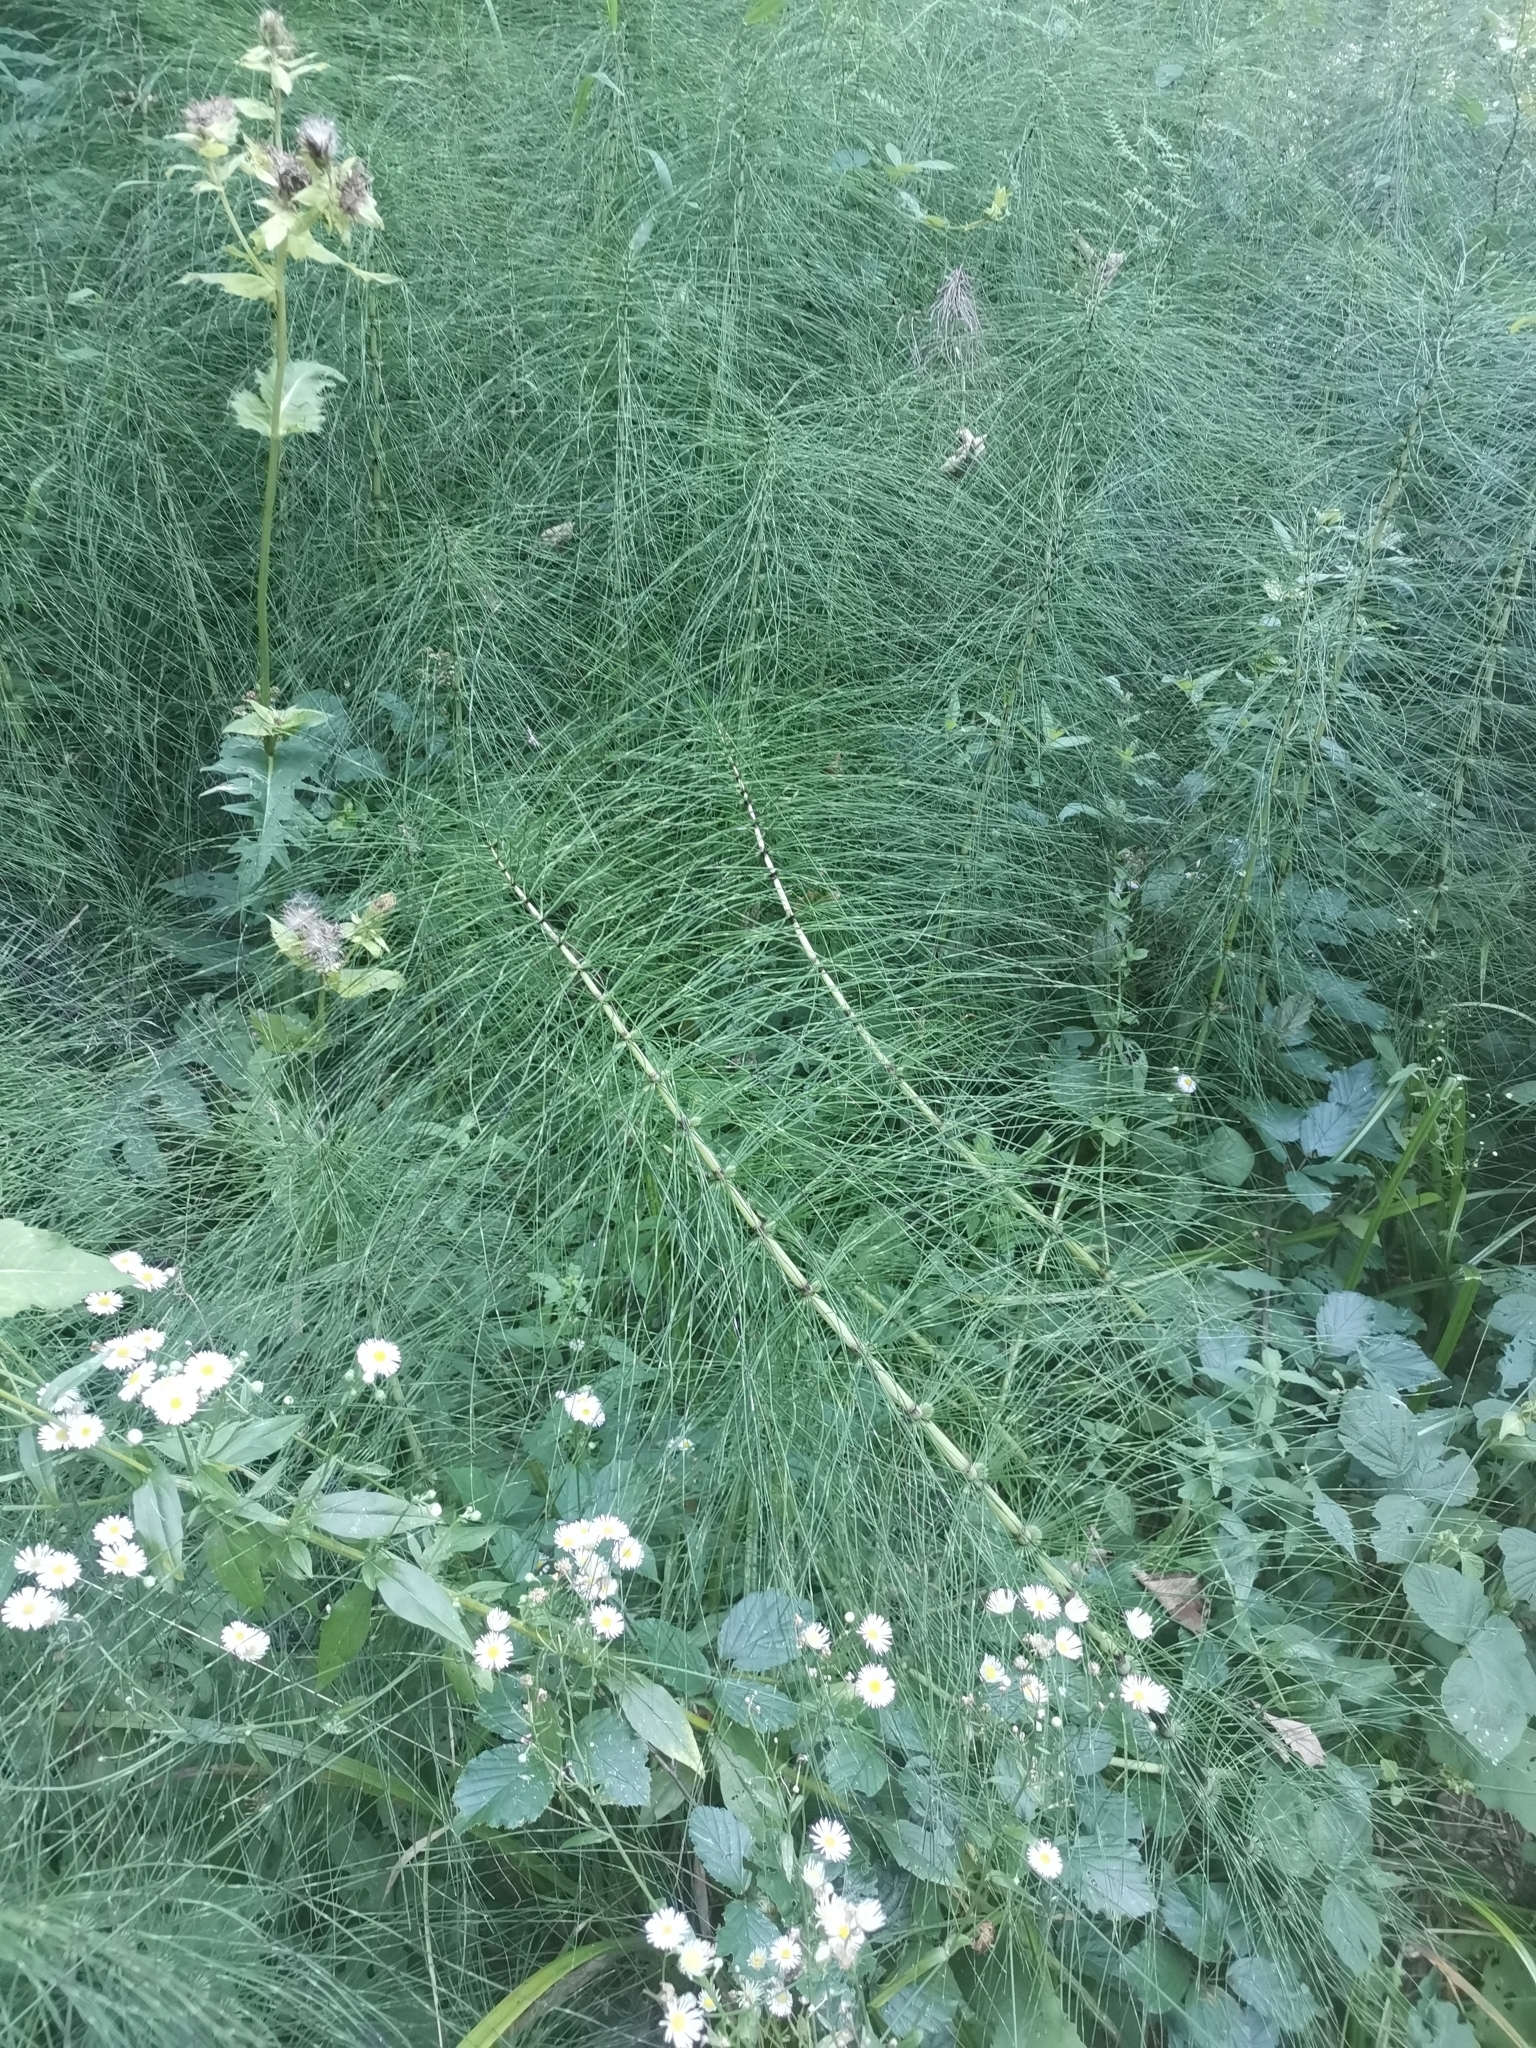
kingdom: Plantae
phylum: Tracheophyta
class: Polypodiopsida
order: Equisetales
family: Equisetaceae
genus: Equisetum
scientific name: Equisetum telmateia
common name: Great horsetail
